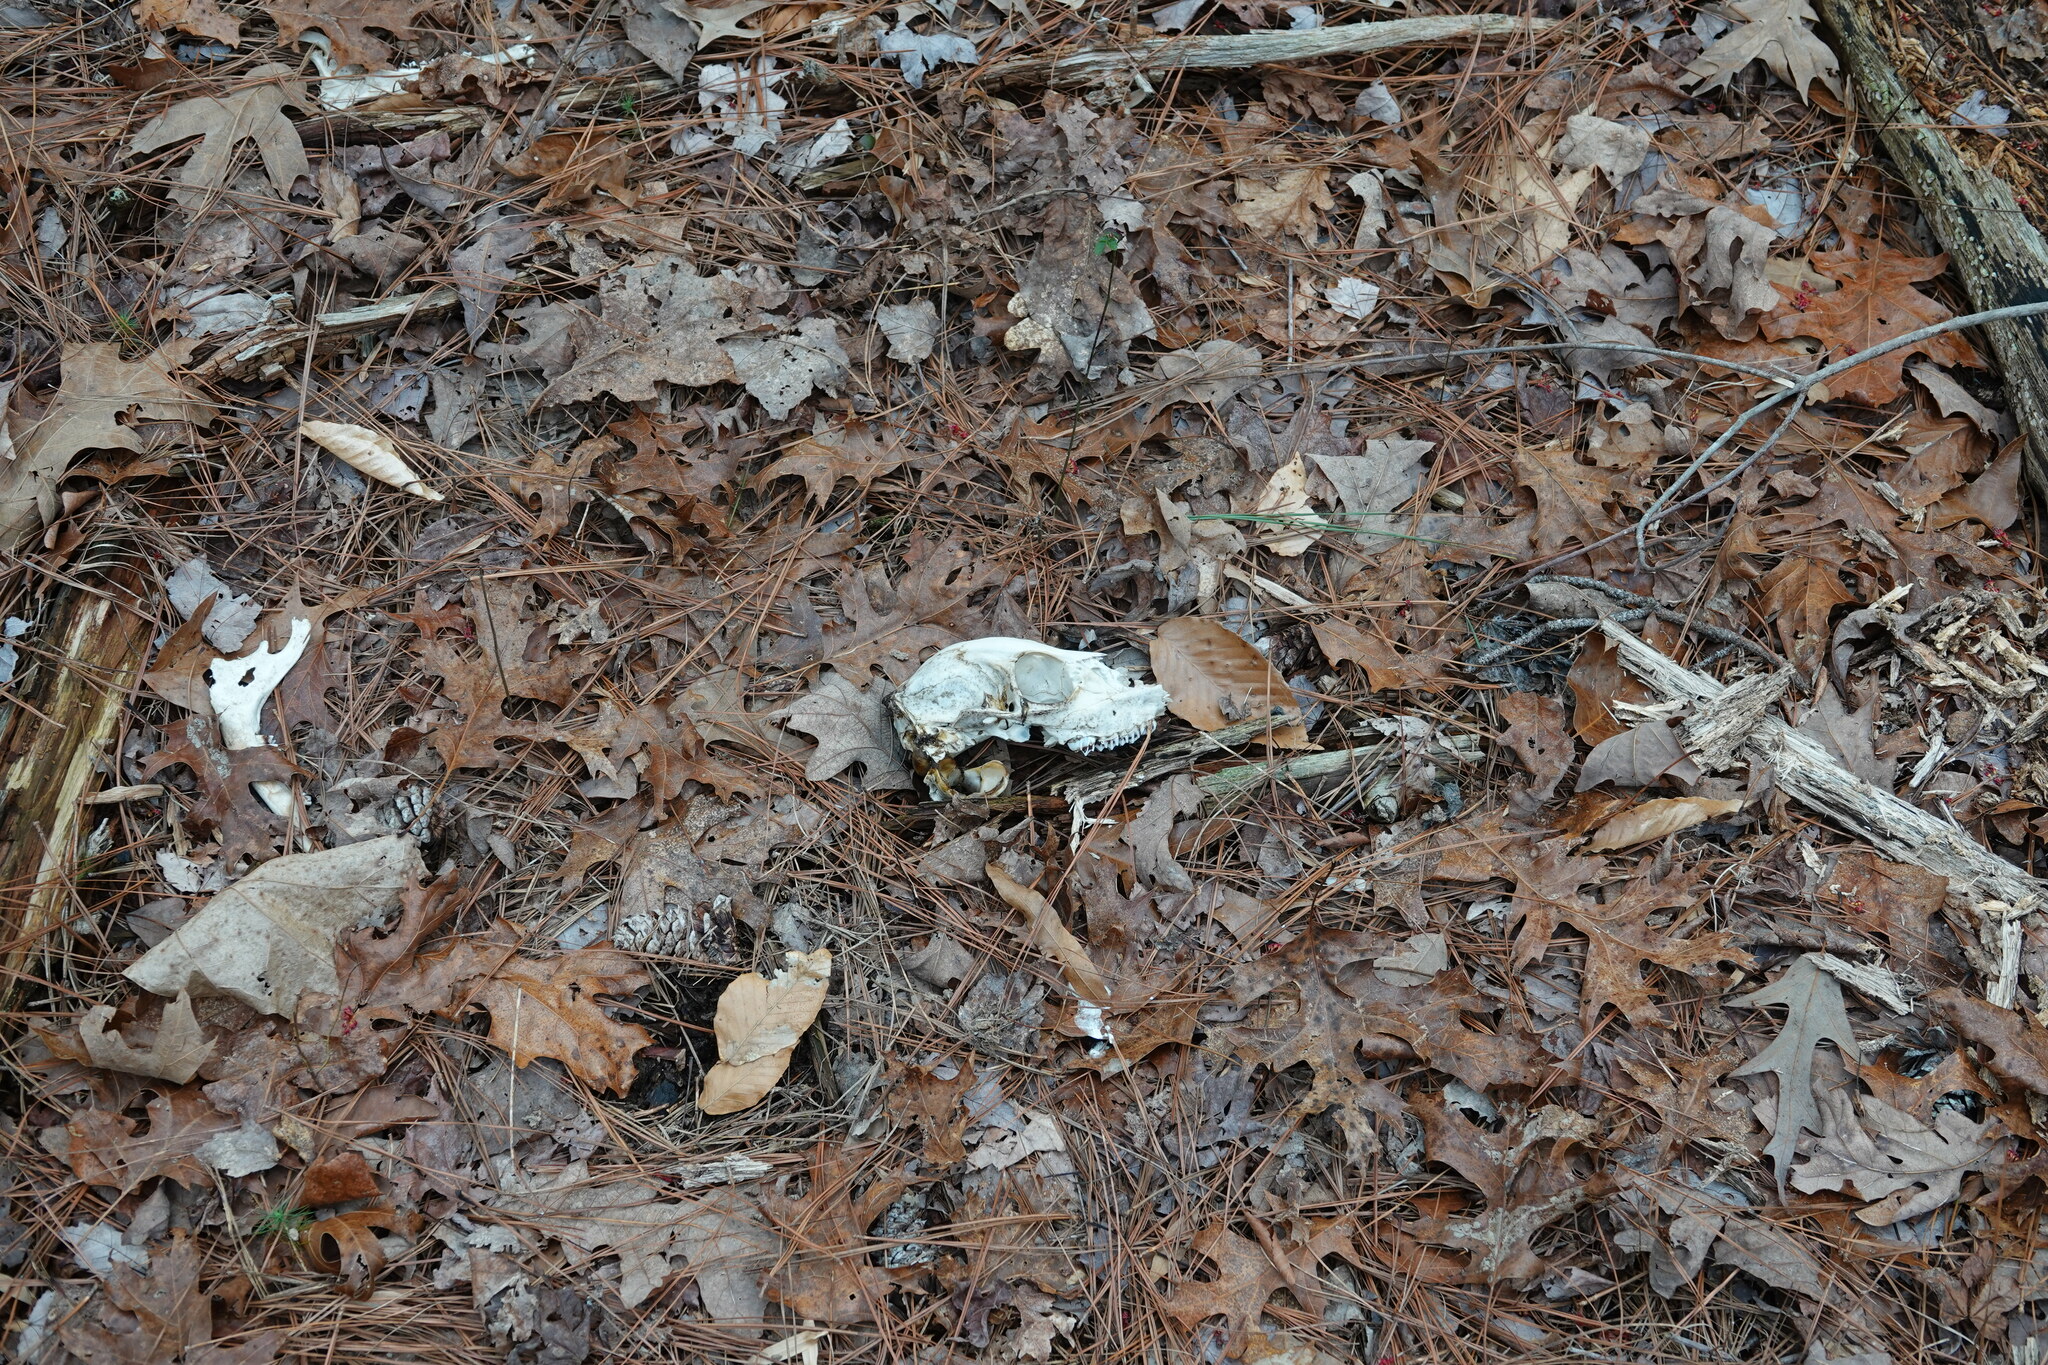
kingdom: Animalia
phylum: Chordata
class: Mammalia
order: Artiodactyla
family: Cervidae
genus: Odocoileus
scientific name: Odocoileus virginianus
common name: White-tailed deer
